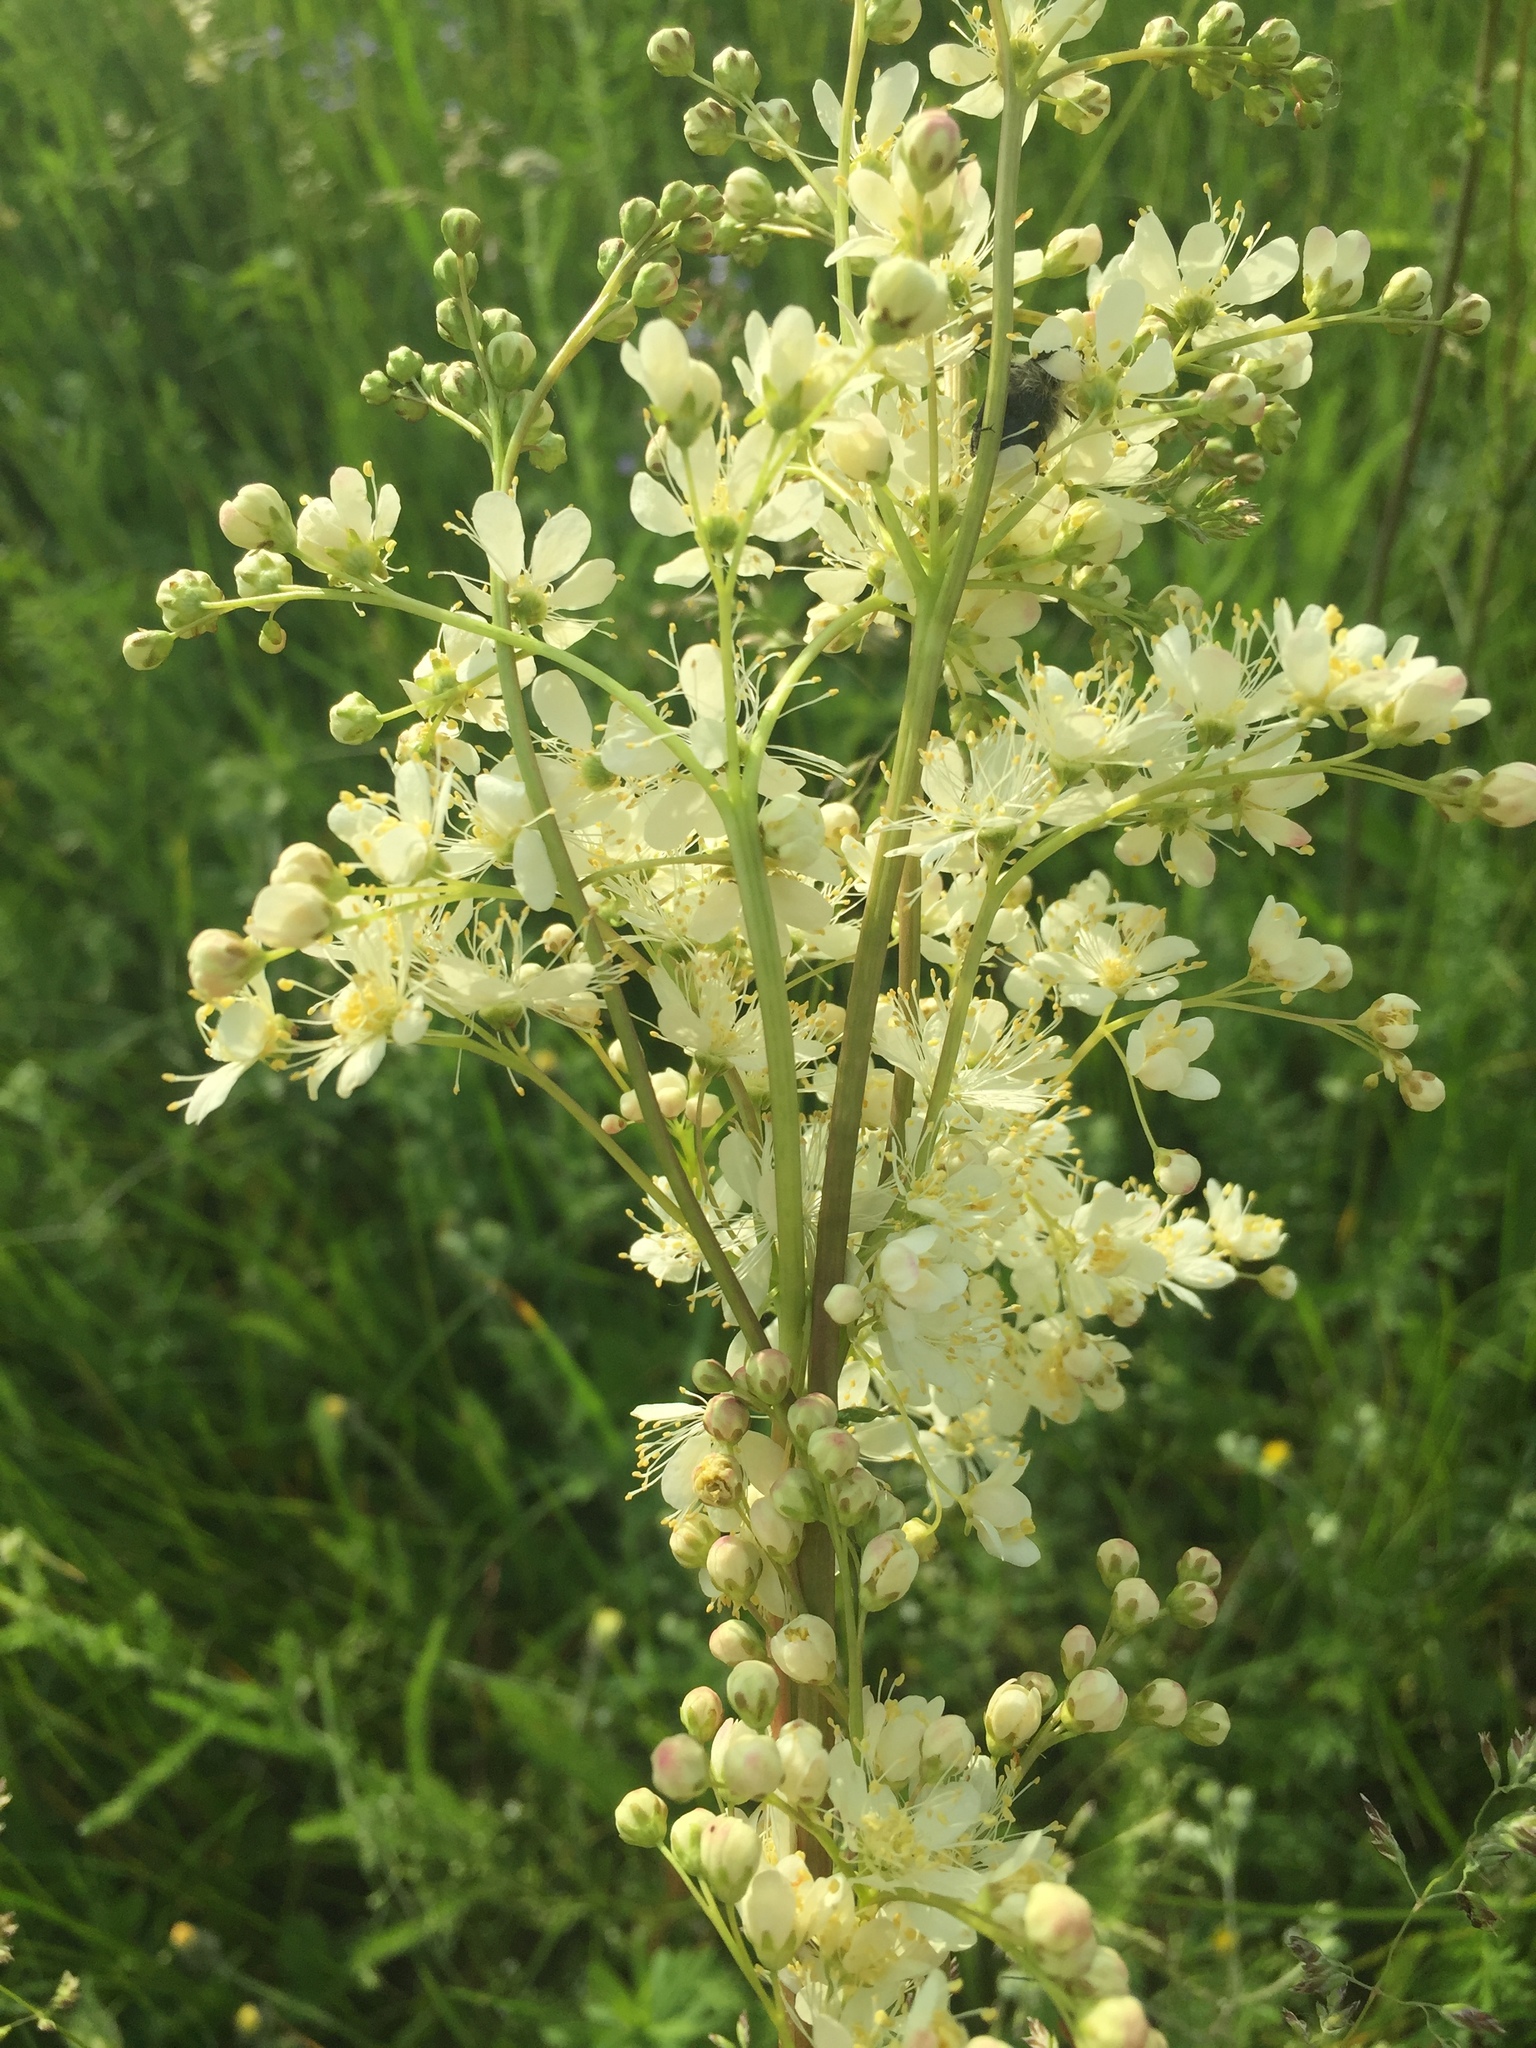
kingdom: Plantae
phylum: Tracheophyta
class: Magnoliopsida
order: Rosales
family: Rosaceae
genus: Filipendula
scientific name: Filipendula vulgaris
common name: Dropwort
